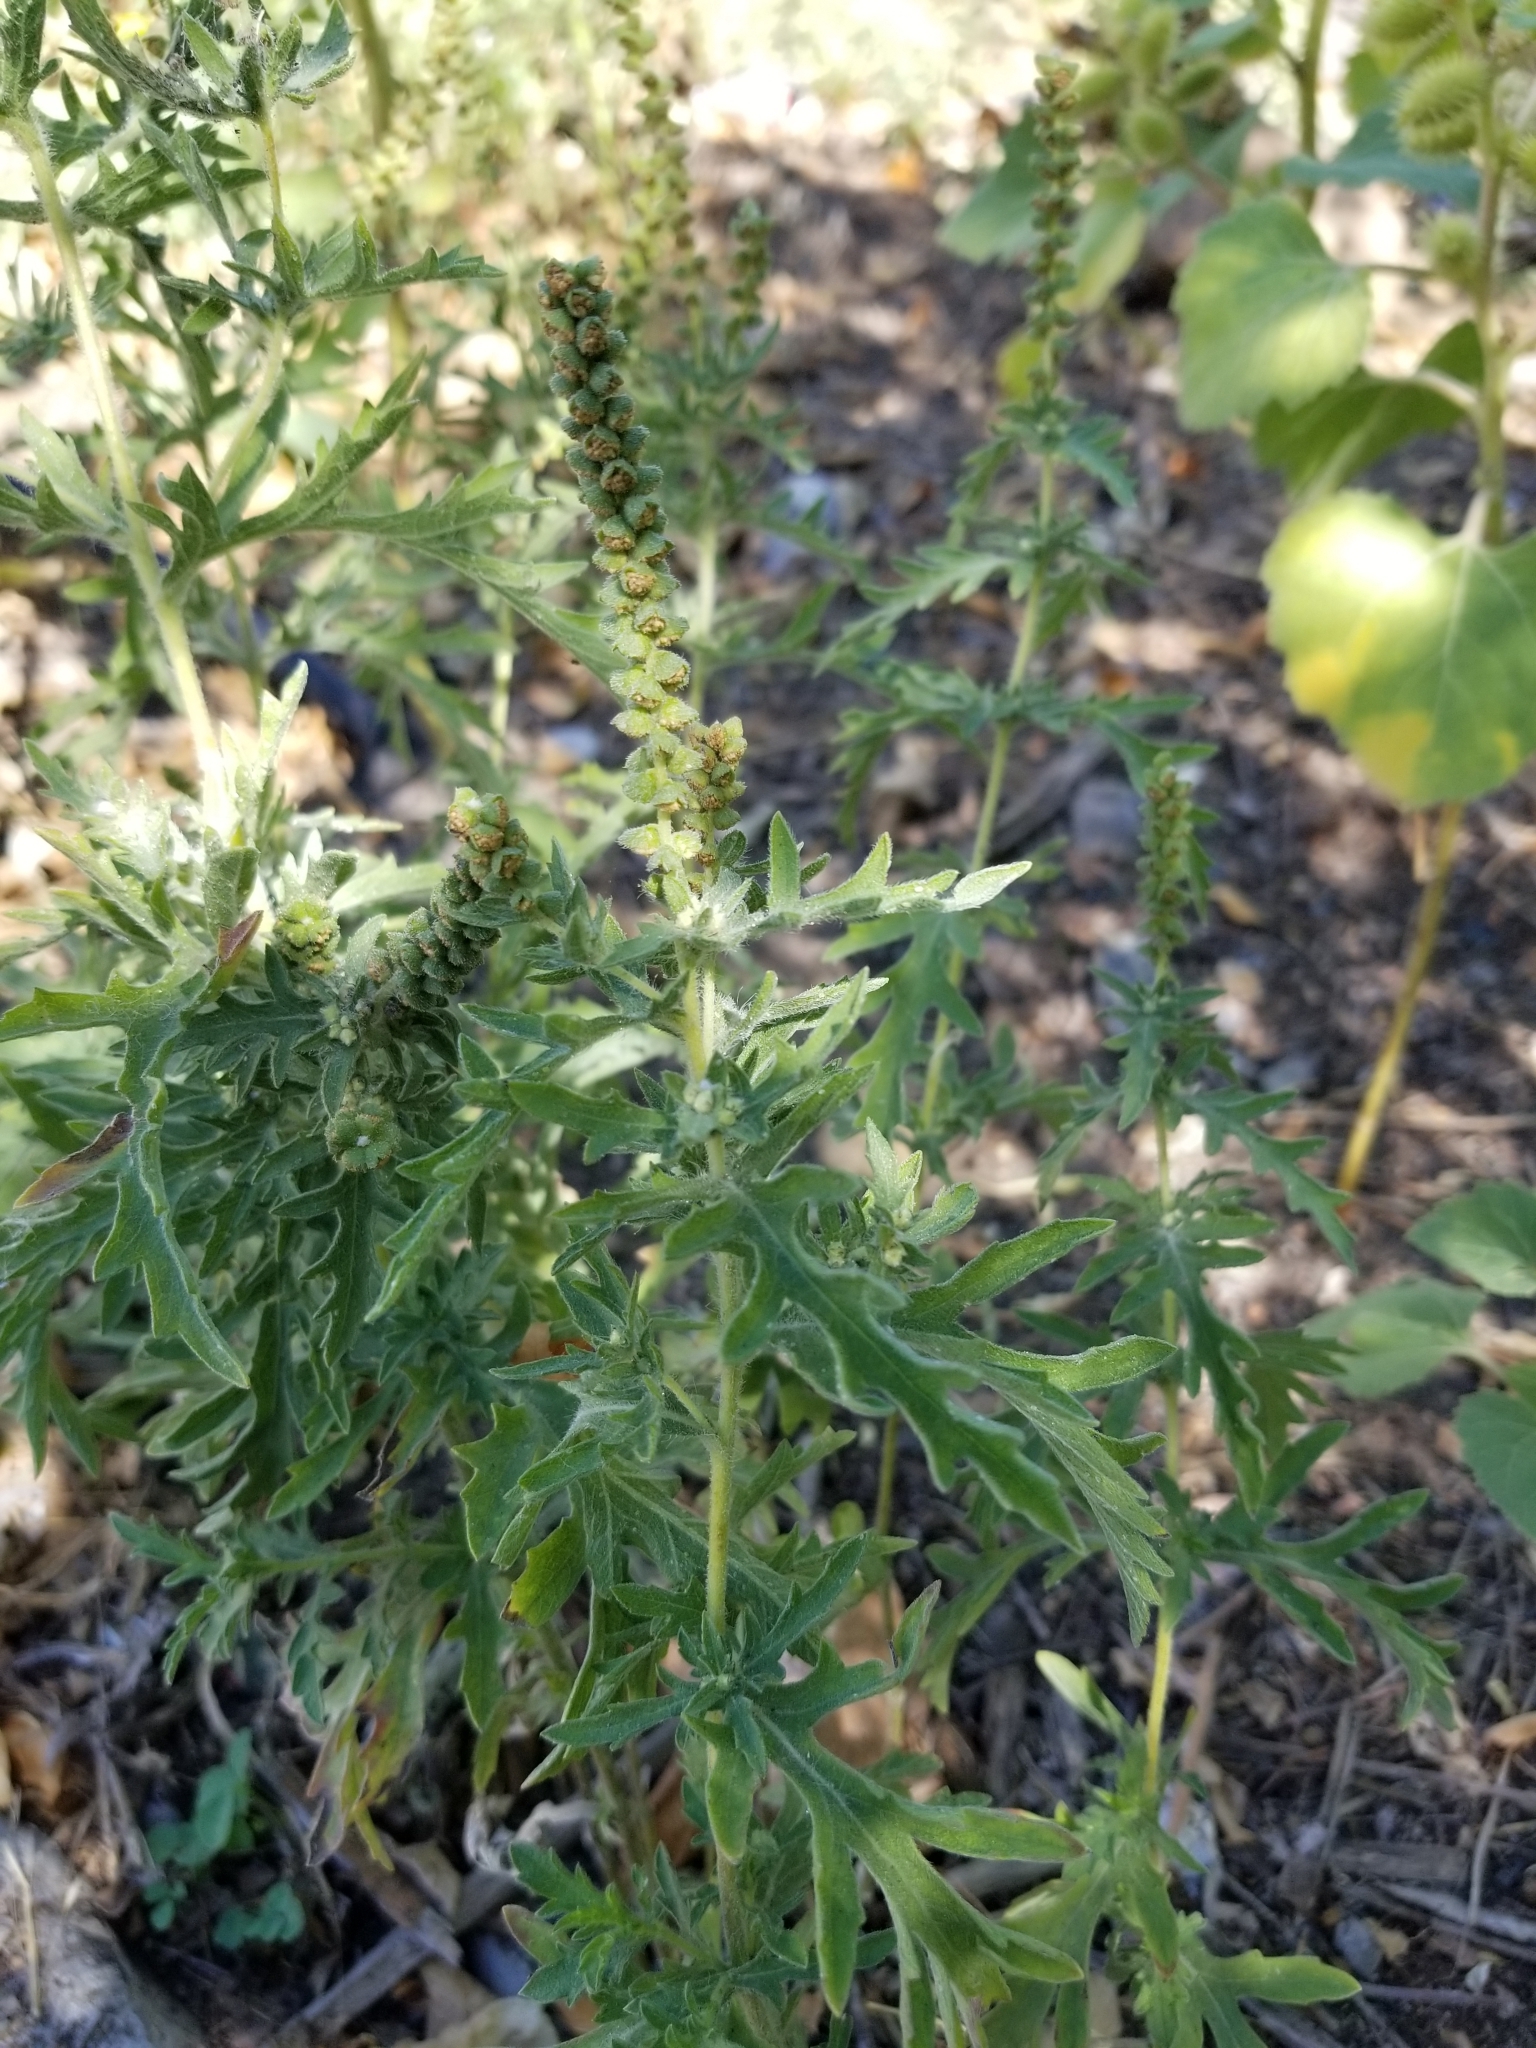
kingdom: Plantae
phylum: Tracheophyta
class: Magnoliopsida
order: Asterales
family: Asteraceae
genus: Ambrosia
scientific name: Ambrosia psilostachya
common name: Perennial ragweed
